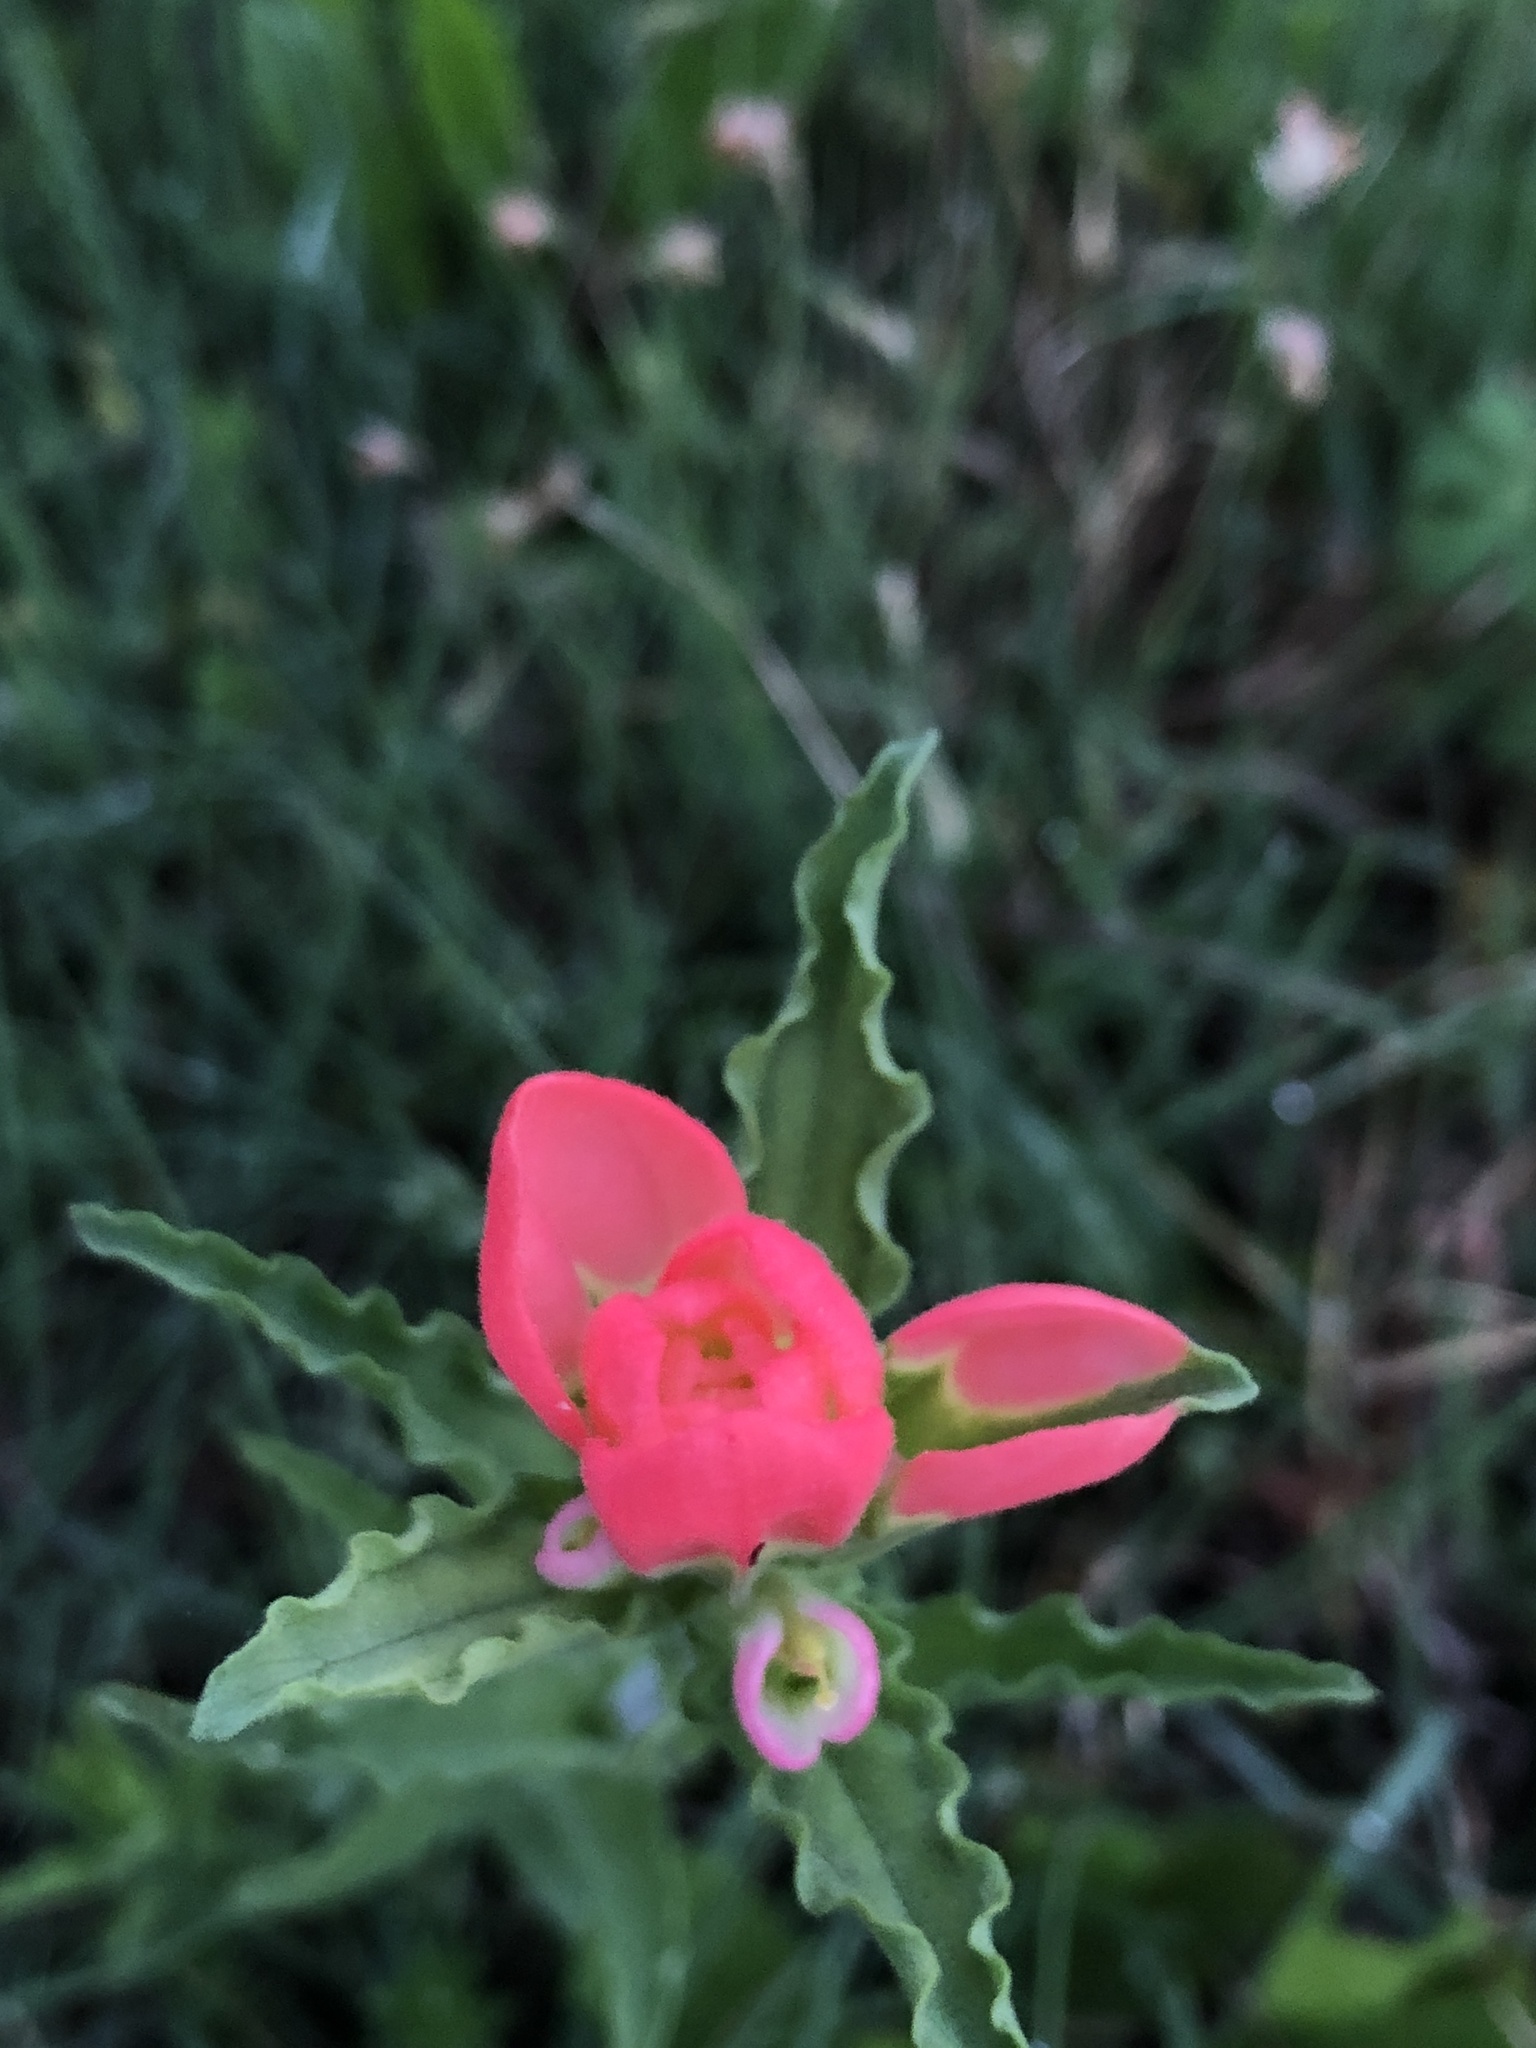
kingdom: Plantae
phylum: Tracheophyta
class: Magnoliopsida
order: Lamiales
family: Orobanchaceae
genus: Castilleja
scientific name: Castilleja indivisa
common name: Texas paintbrush
